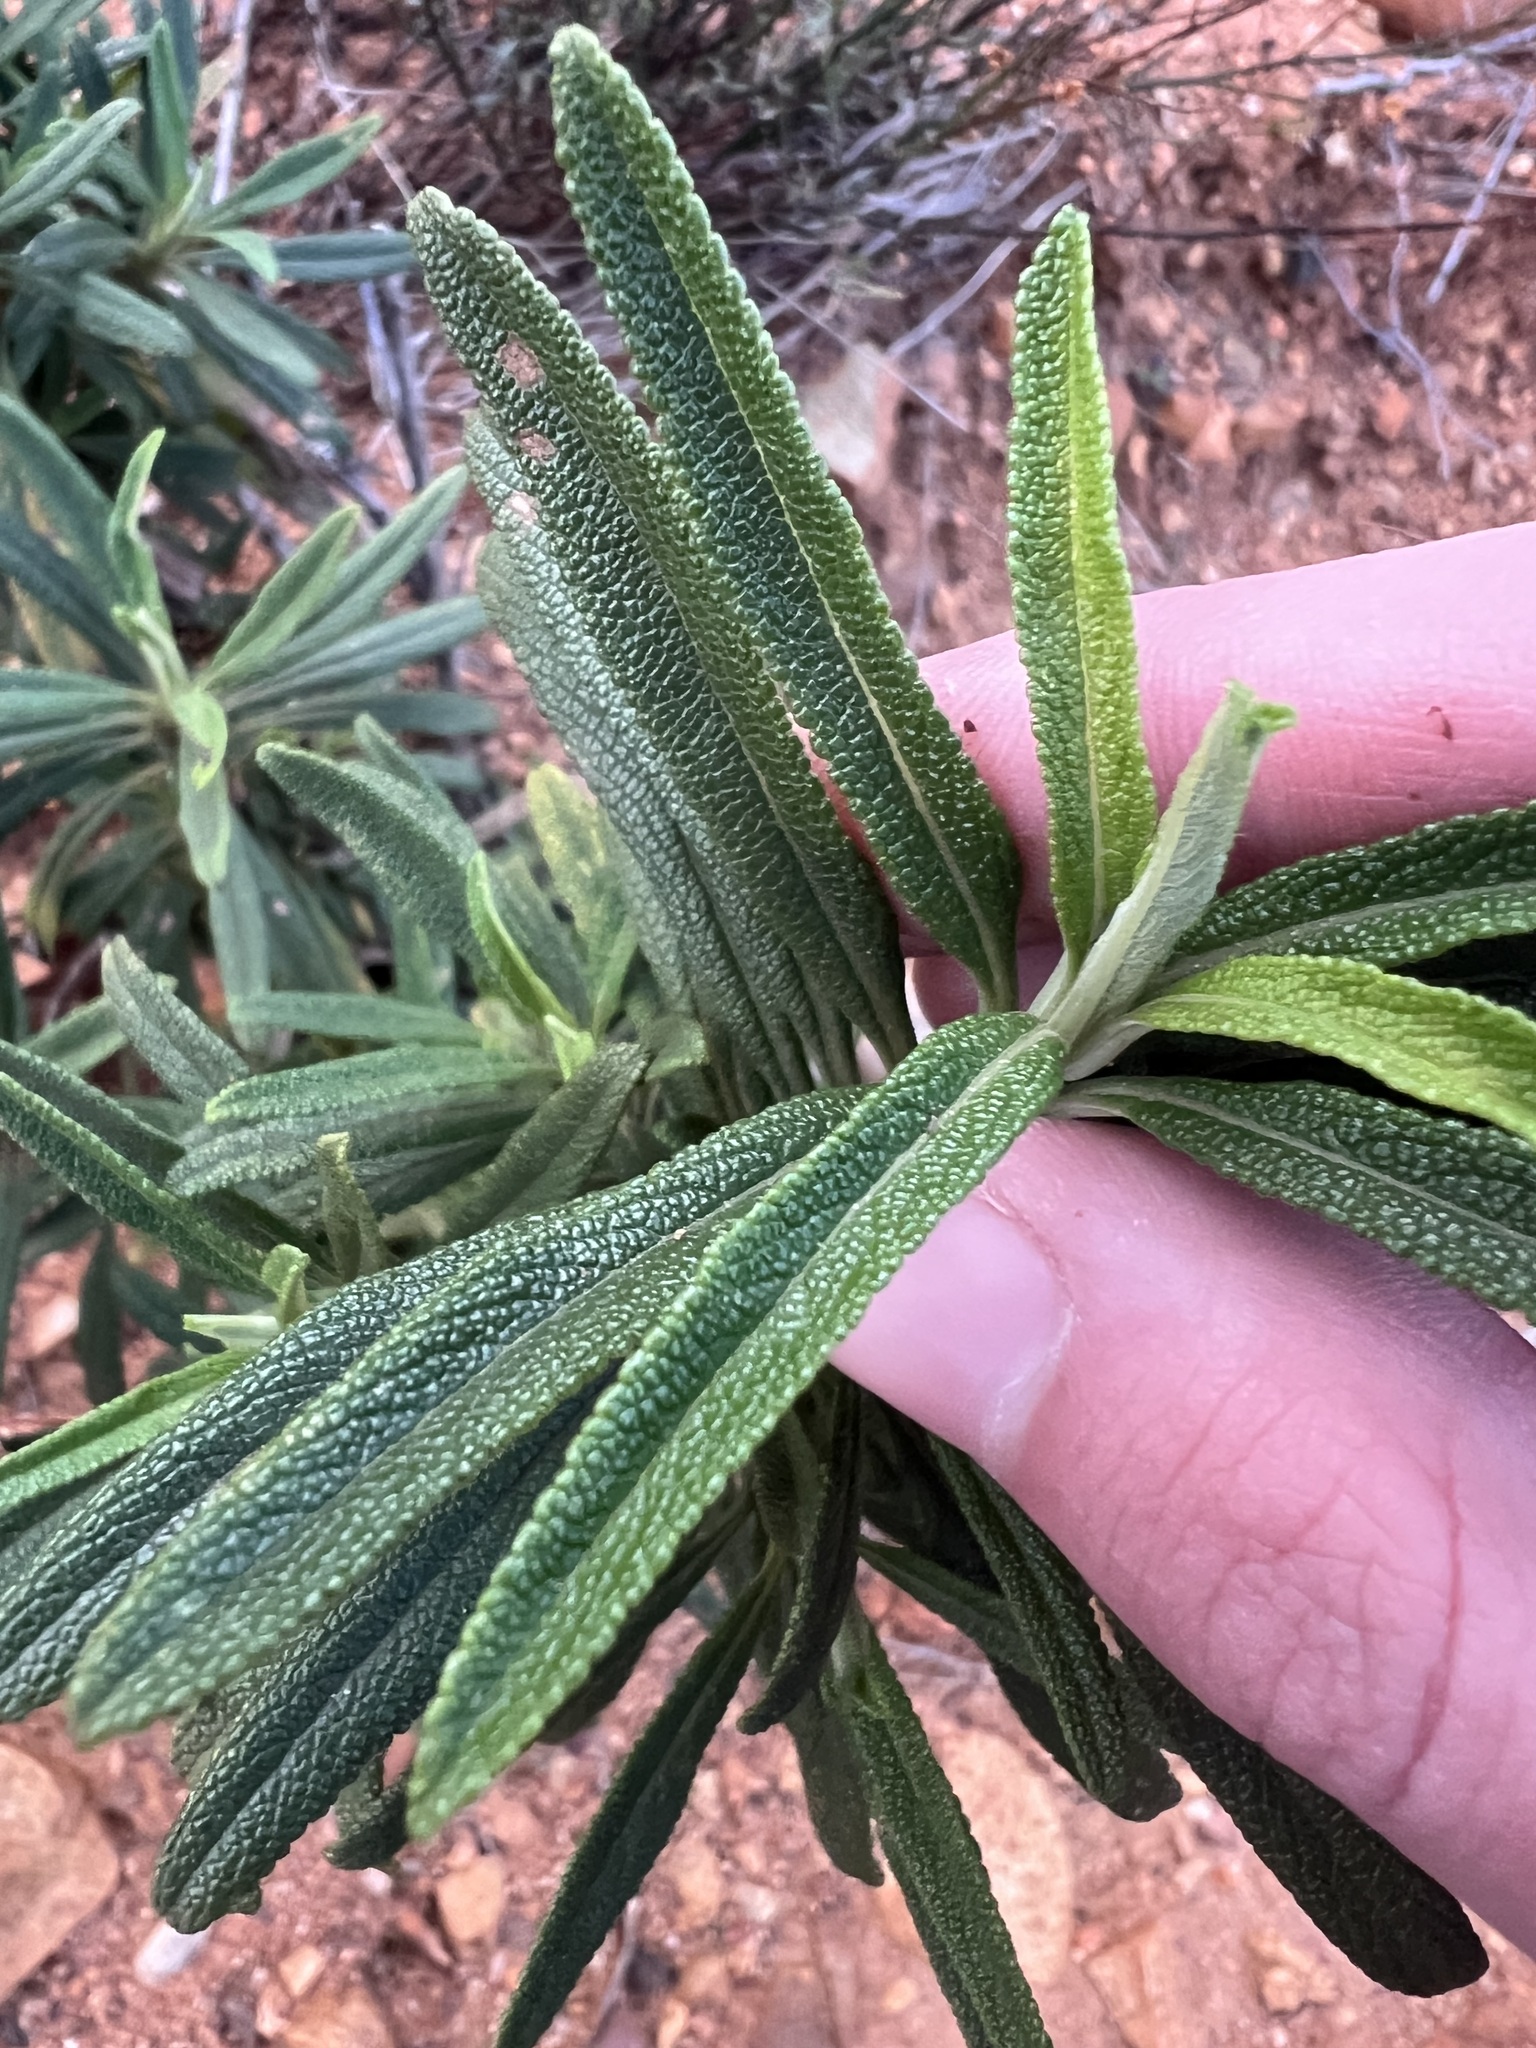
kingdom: Plantae
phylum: Tracheophyta
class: Magnoliopsida
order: Lamiales
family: Lamiaceae
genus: Salvia
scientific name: Salvia mellifera
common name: Black sage
